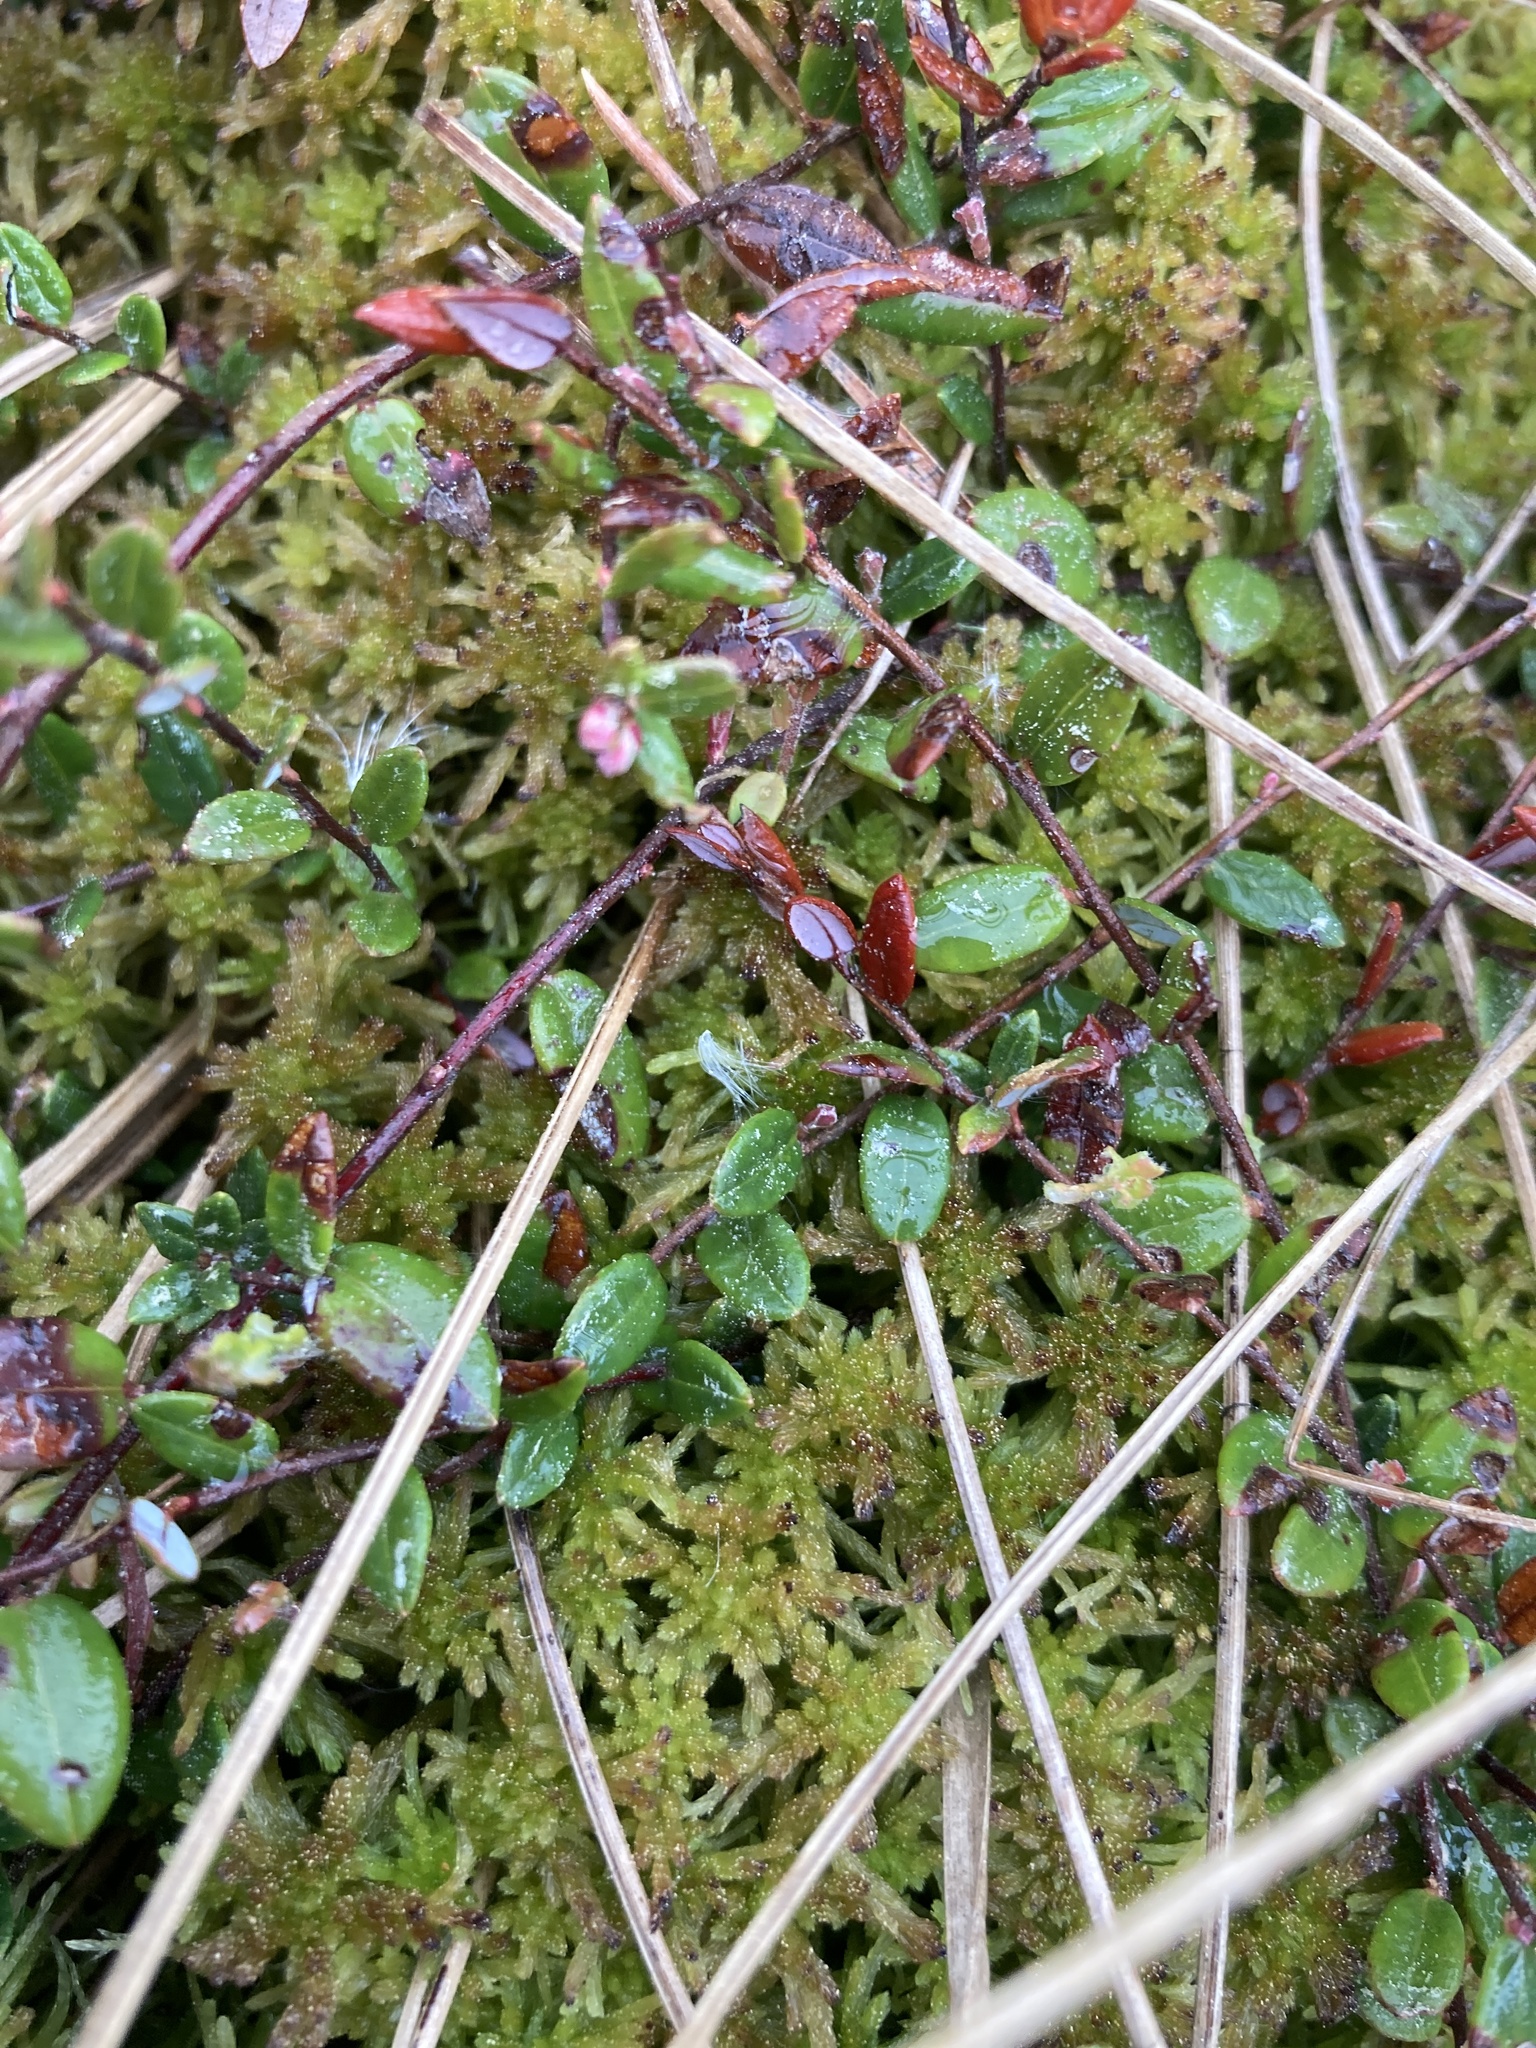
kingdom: Plantae
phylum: Tracheophyta
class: Magnoliopsida
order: Ericales
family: Ericaceae
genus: Vaccinium
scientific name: Vaccinium oxycoccos
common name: Cranberry
